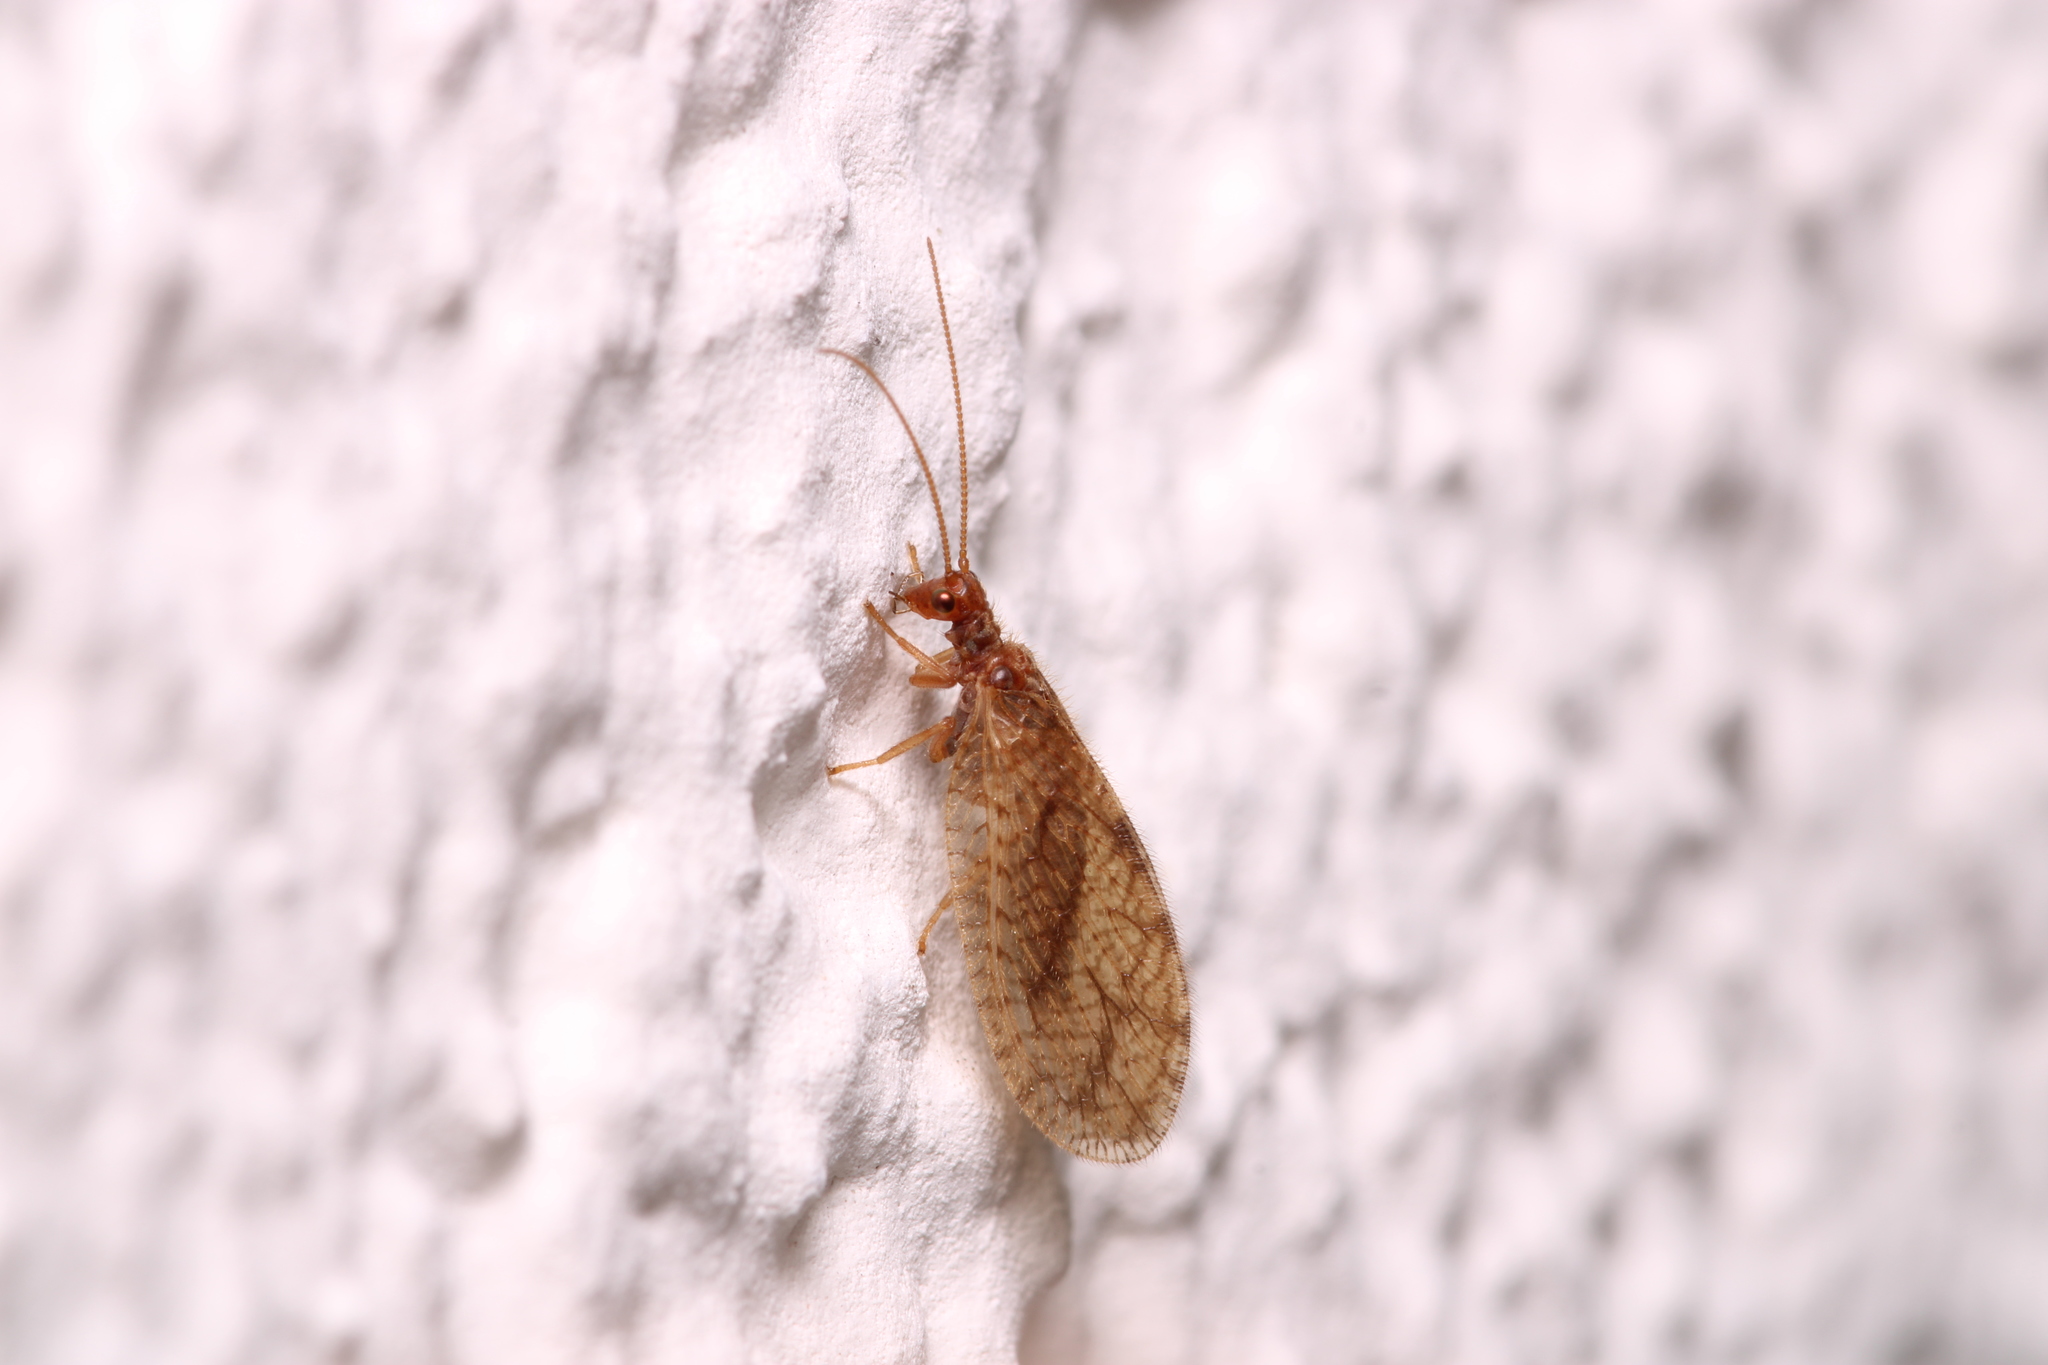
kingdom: Animalia
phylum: Arthropoda
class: Insecta
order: Neuroptera
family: Hemerobiidae
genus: Micromus
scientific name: Micromus angulatus
